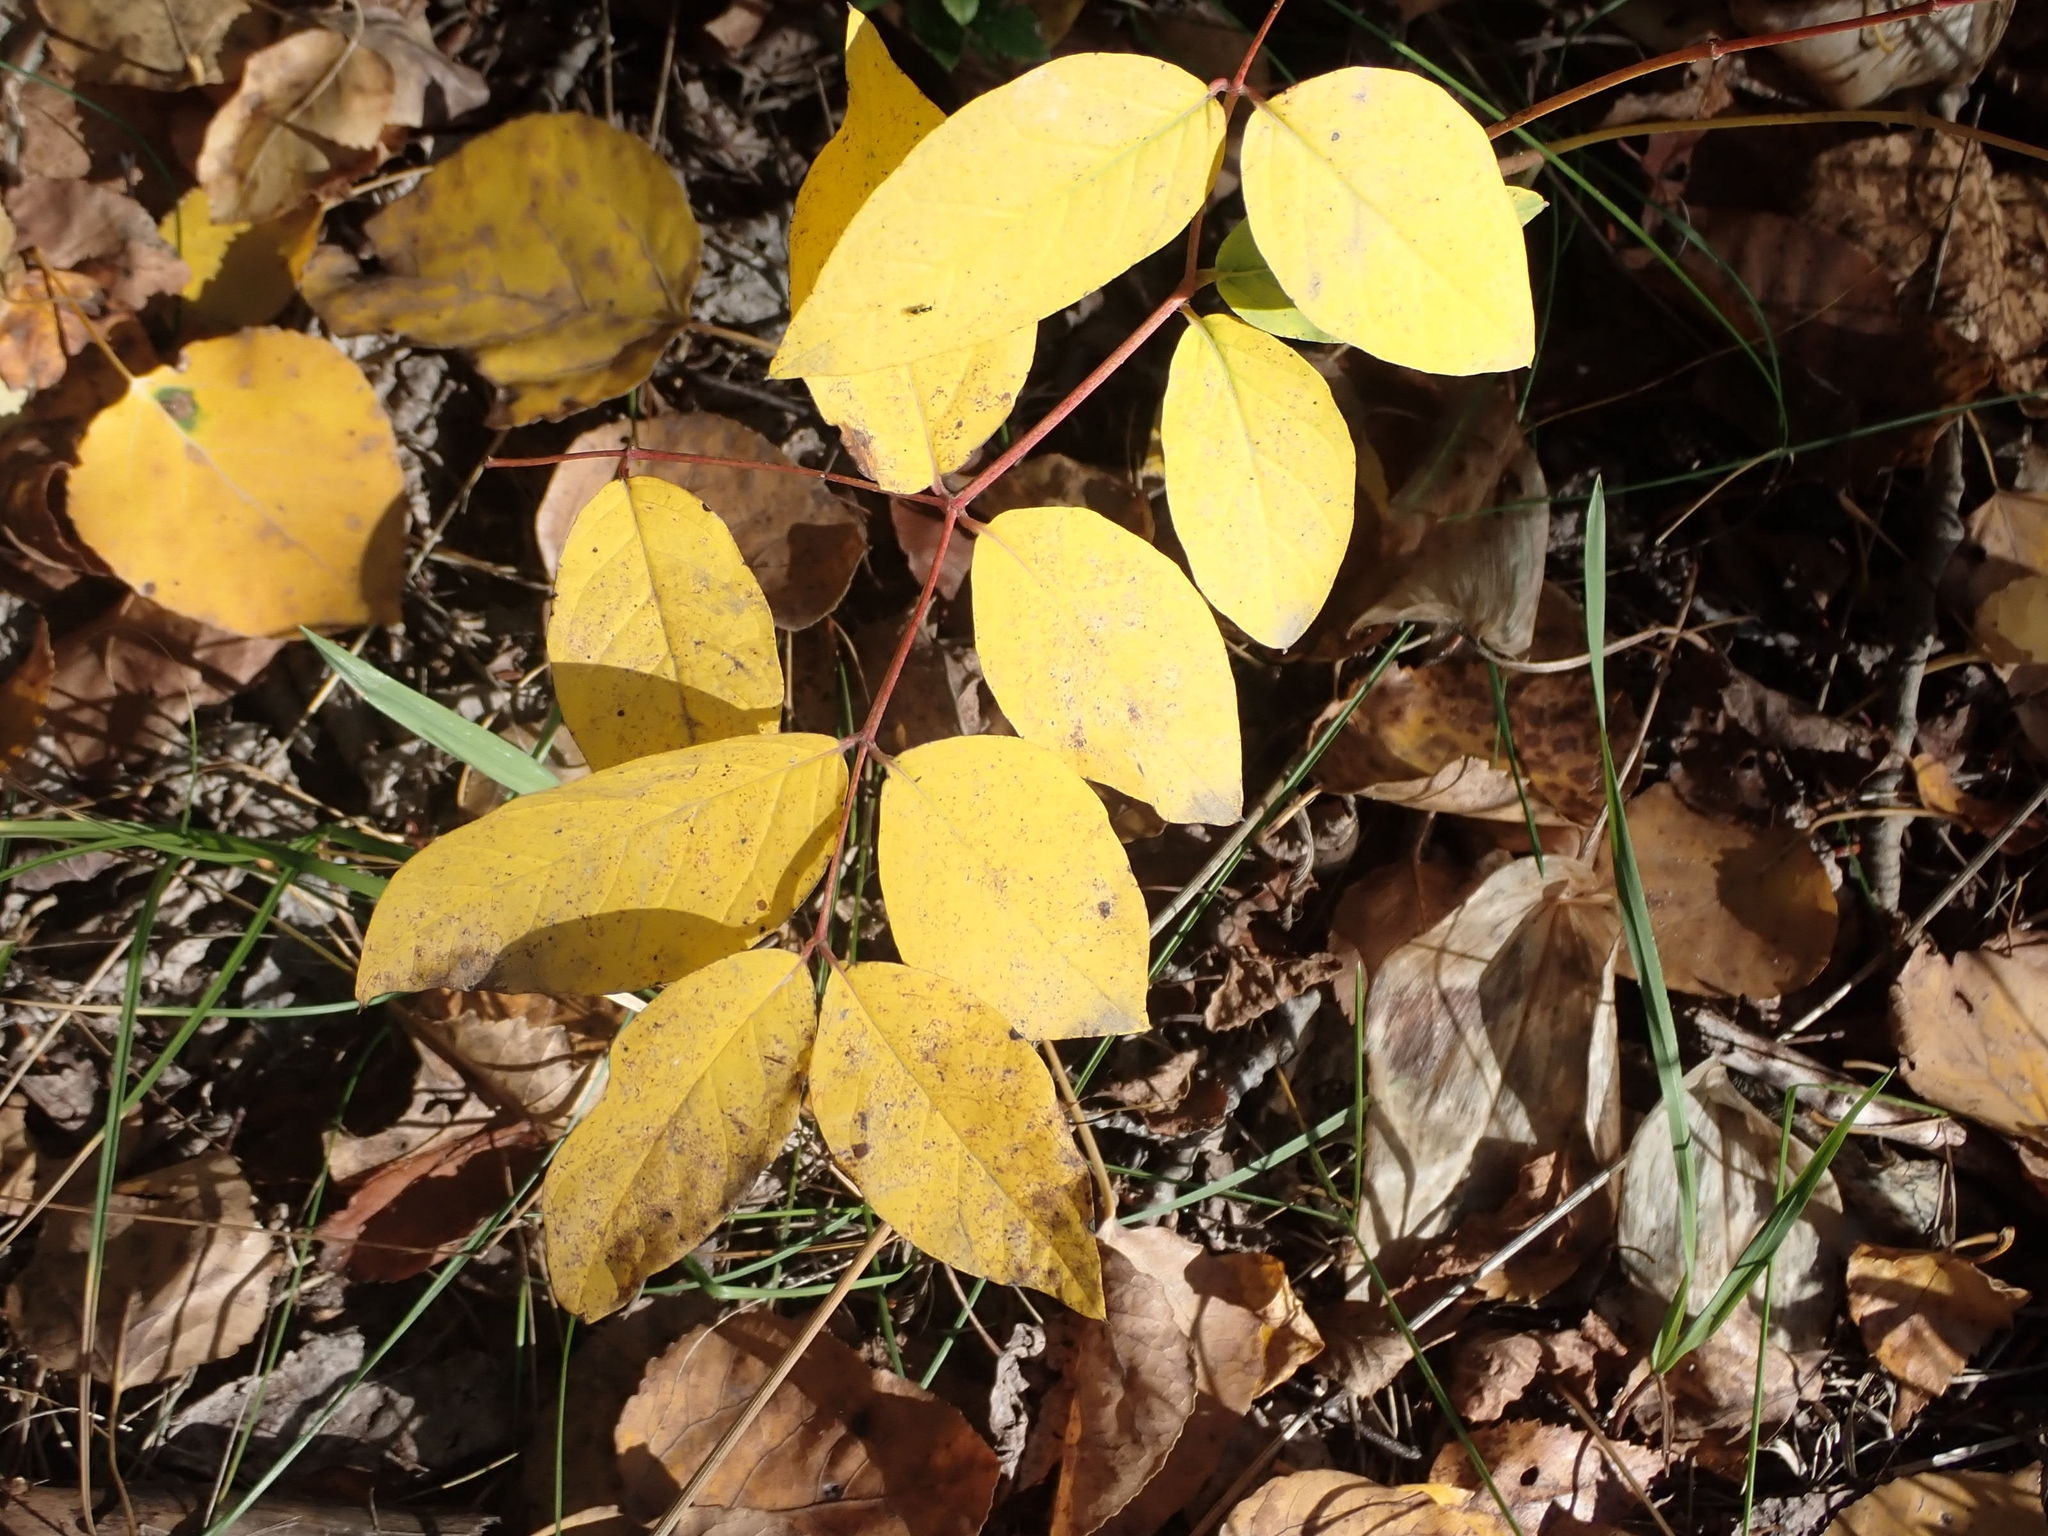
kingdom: Plantae
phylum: Tracheophyta
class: Magnoliopsida
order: Gentianales
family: Apocynaceae
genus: Apocynum
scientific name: Apocynum androsaemifolium
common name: Spreading dogbane
